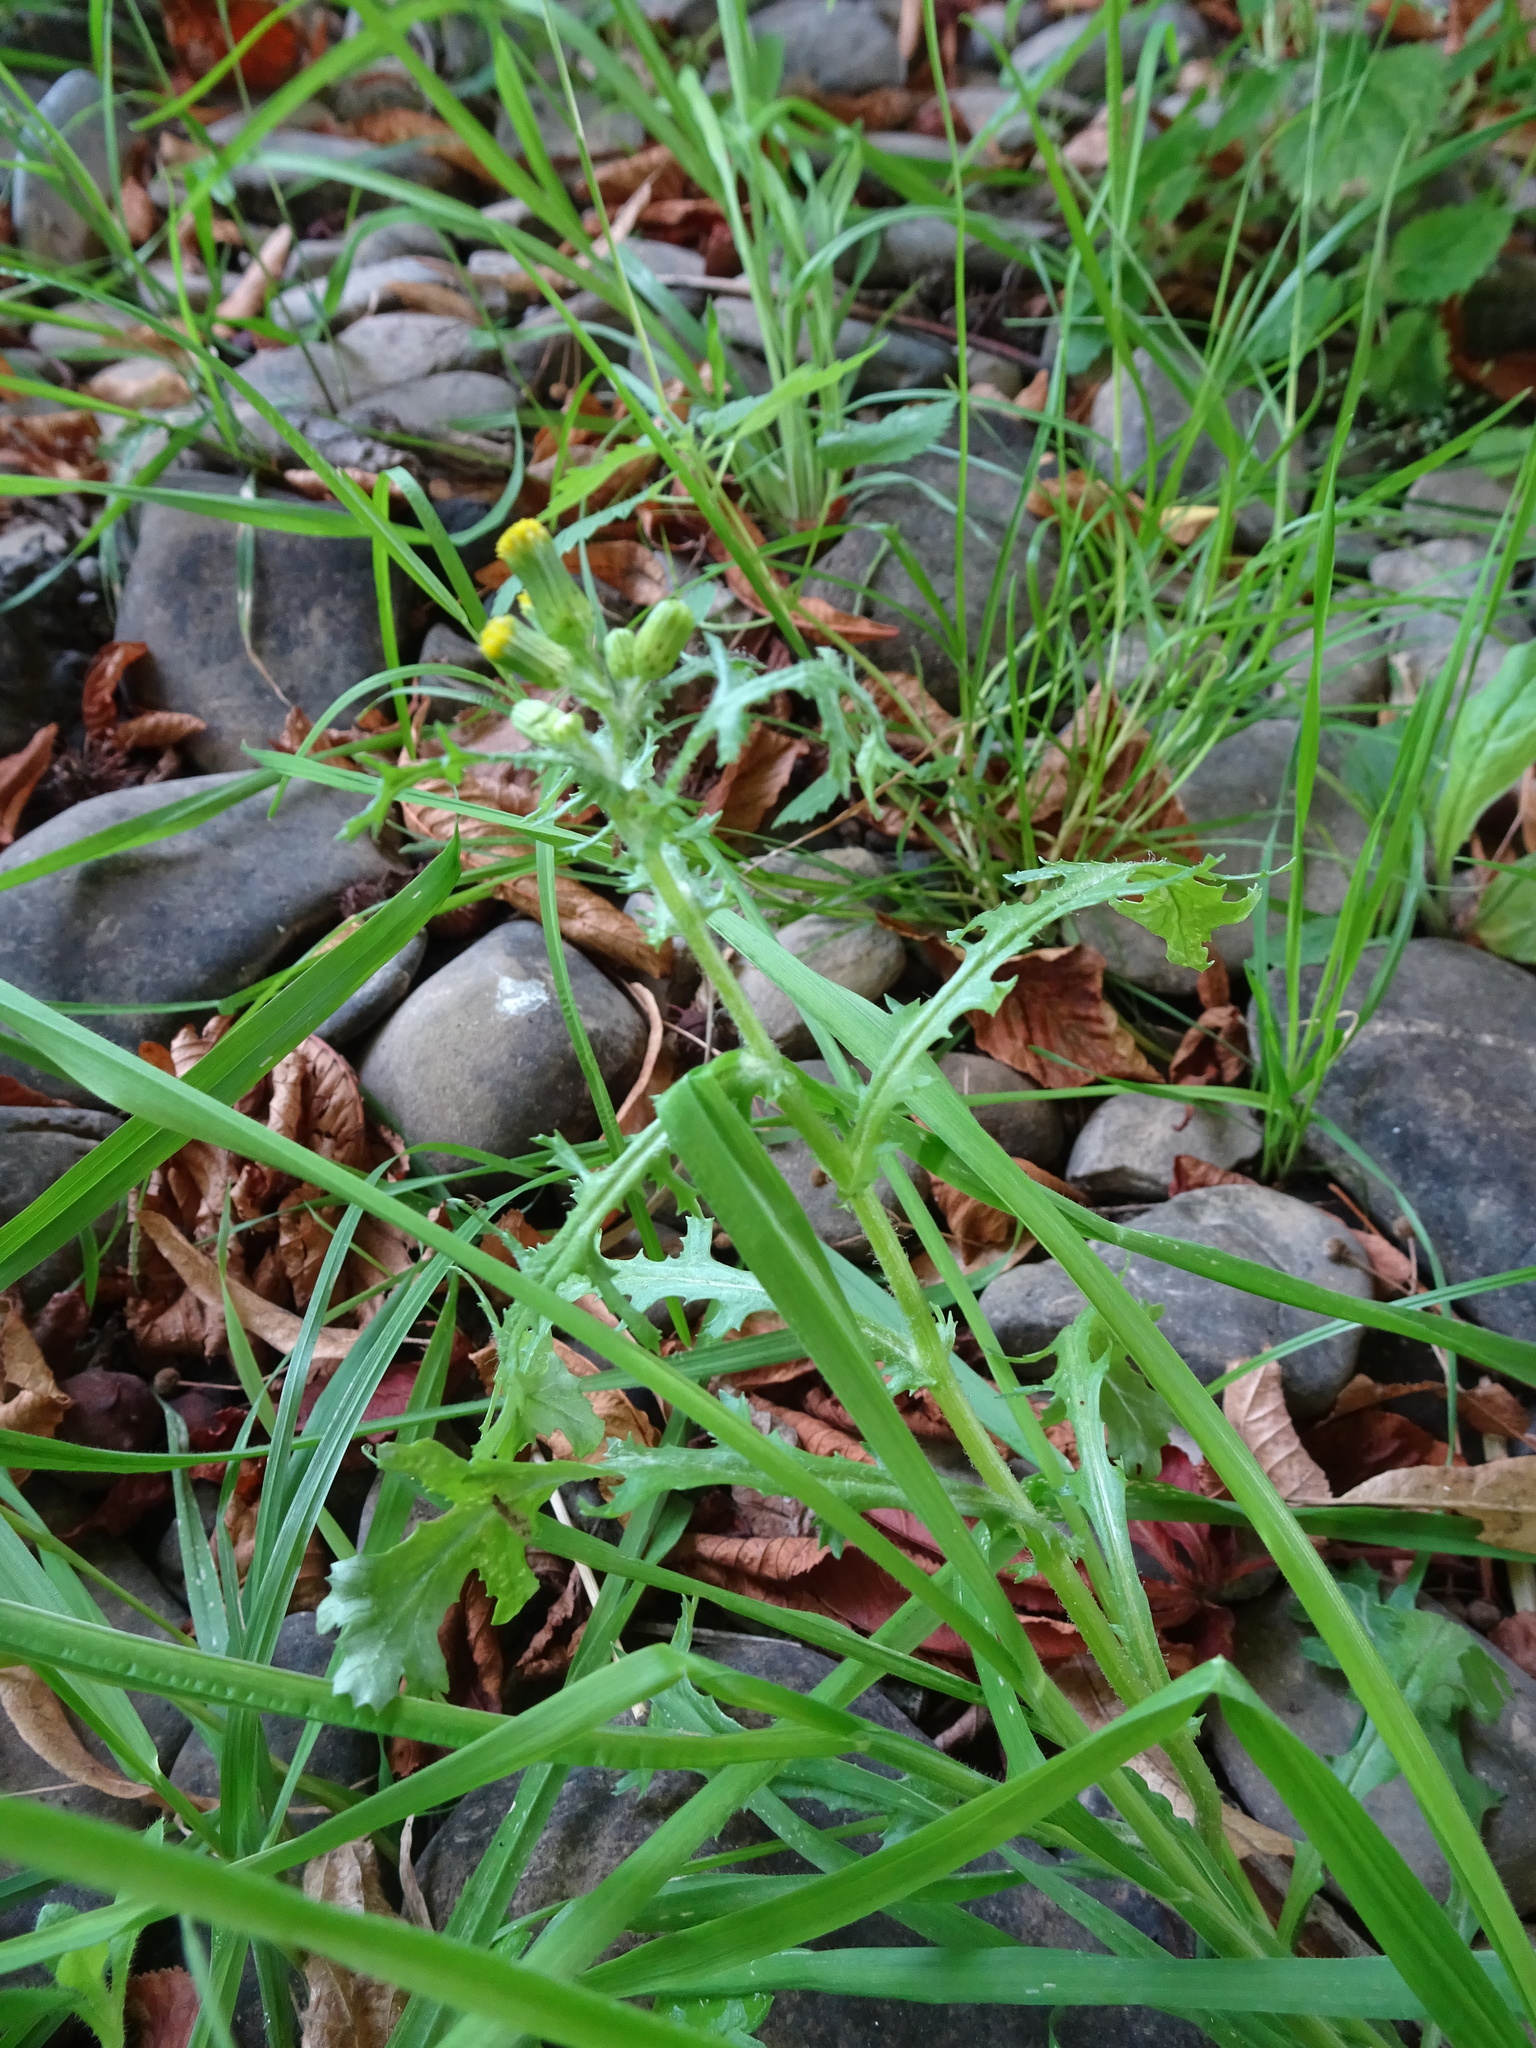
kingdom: Plantae
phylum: Tracheophyta
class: Magnoliopsida
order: Asterales
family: Asteraceae
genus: Senecio
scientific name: Senecio vulgaris
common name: Old-man-in-the-spring
